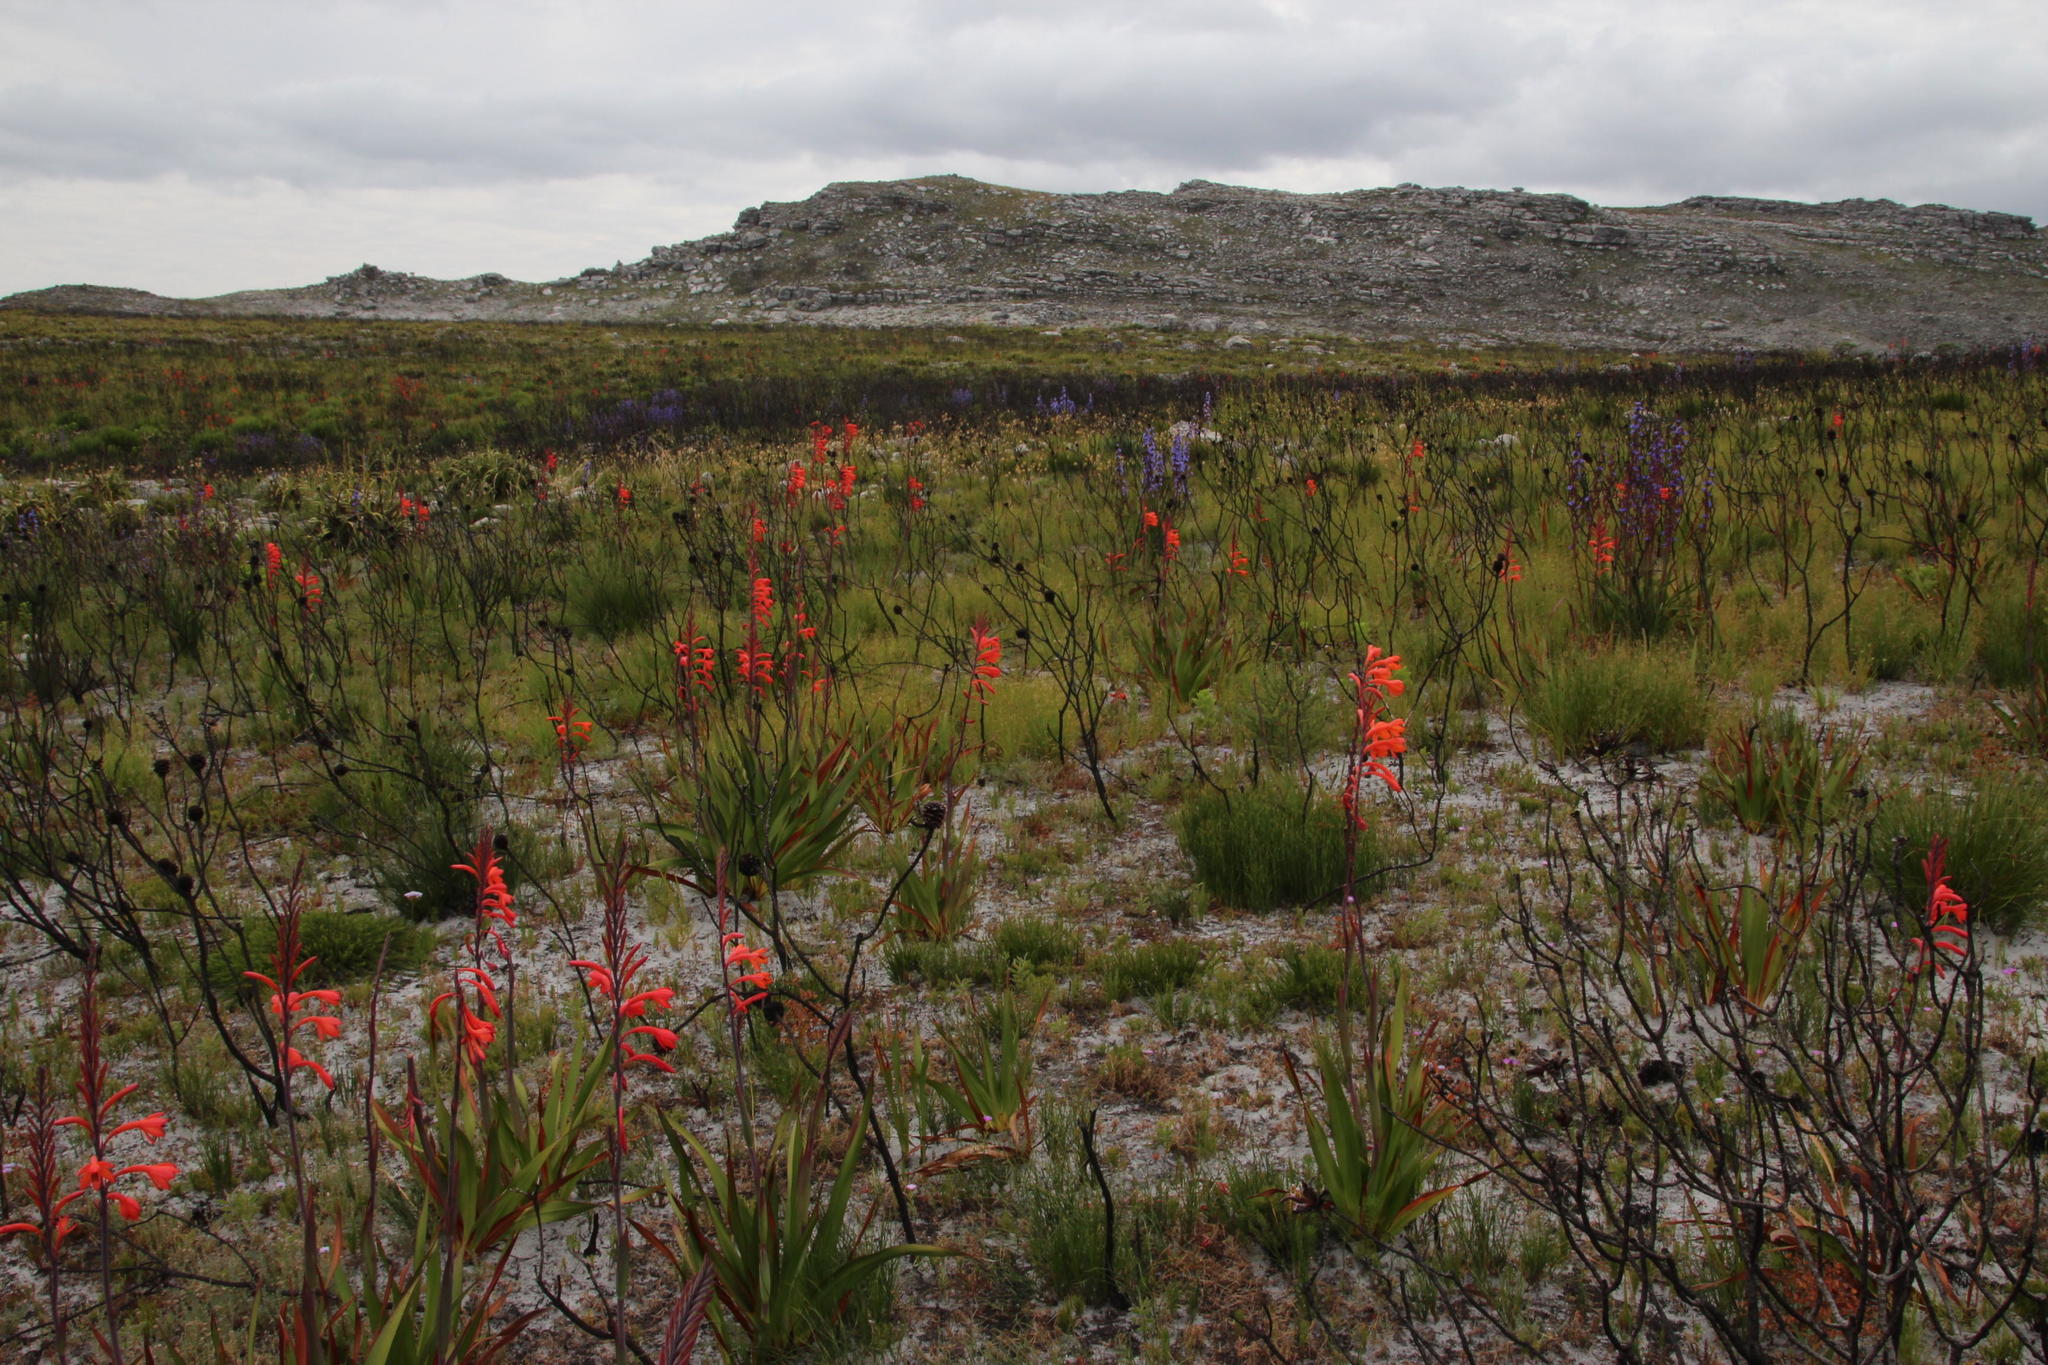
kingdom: Plantae
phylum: Tracheophyta
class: Liliopsida
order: Asparagales
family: Iridaceae
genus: Watsonia
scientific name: Watsonia tabularis
